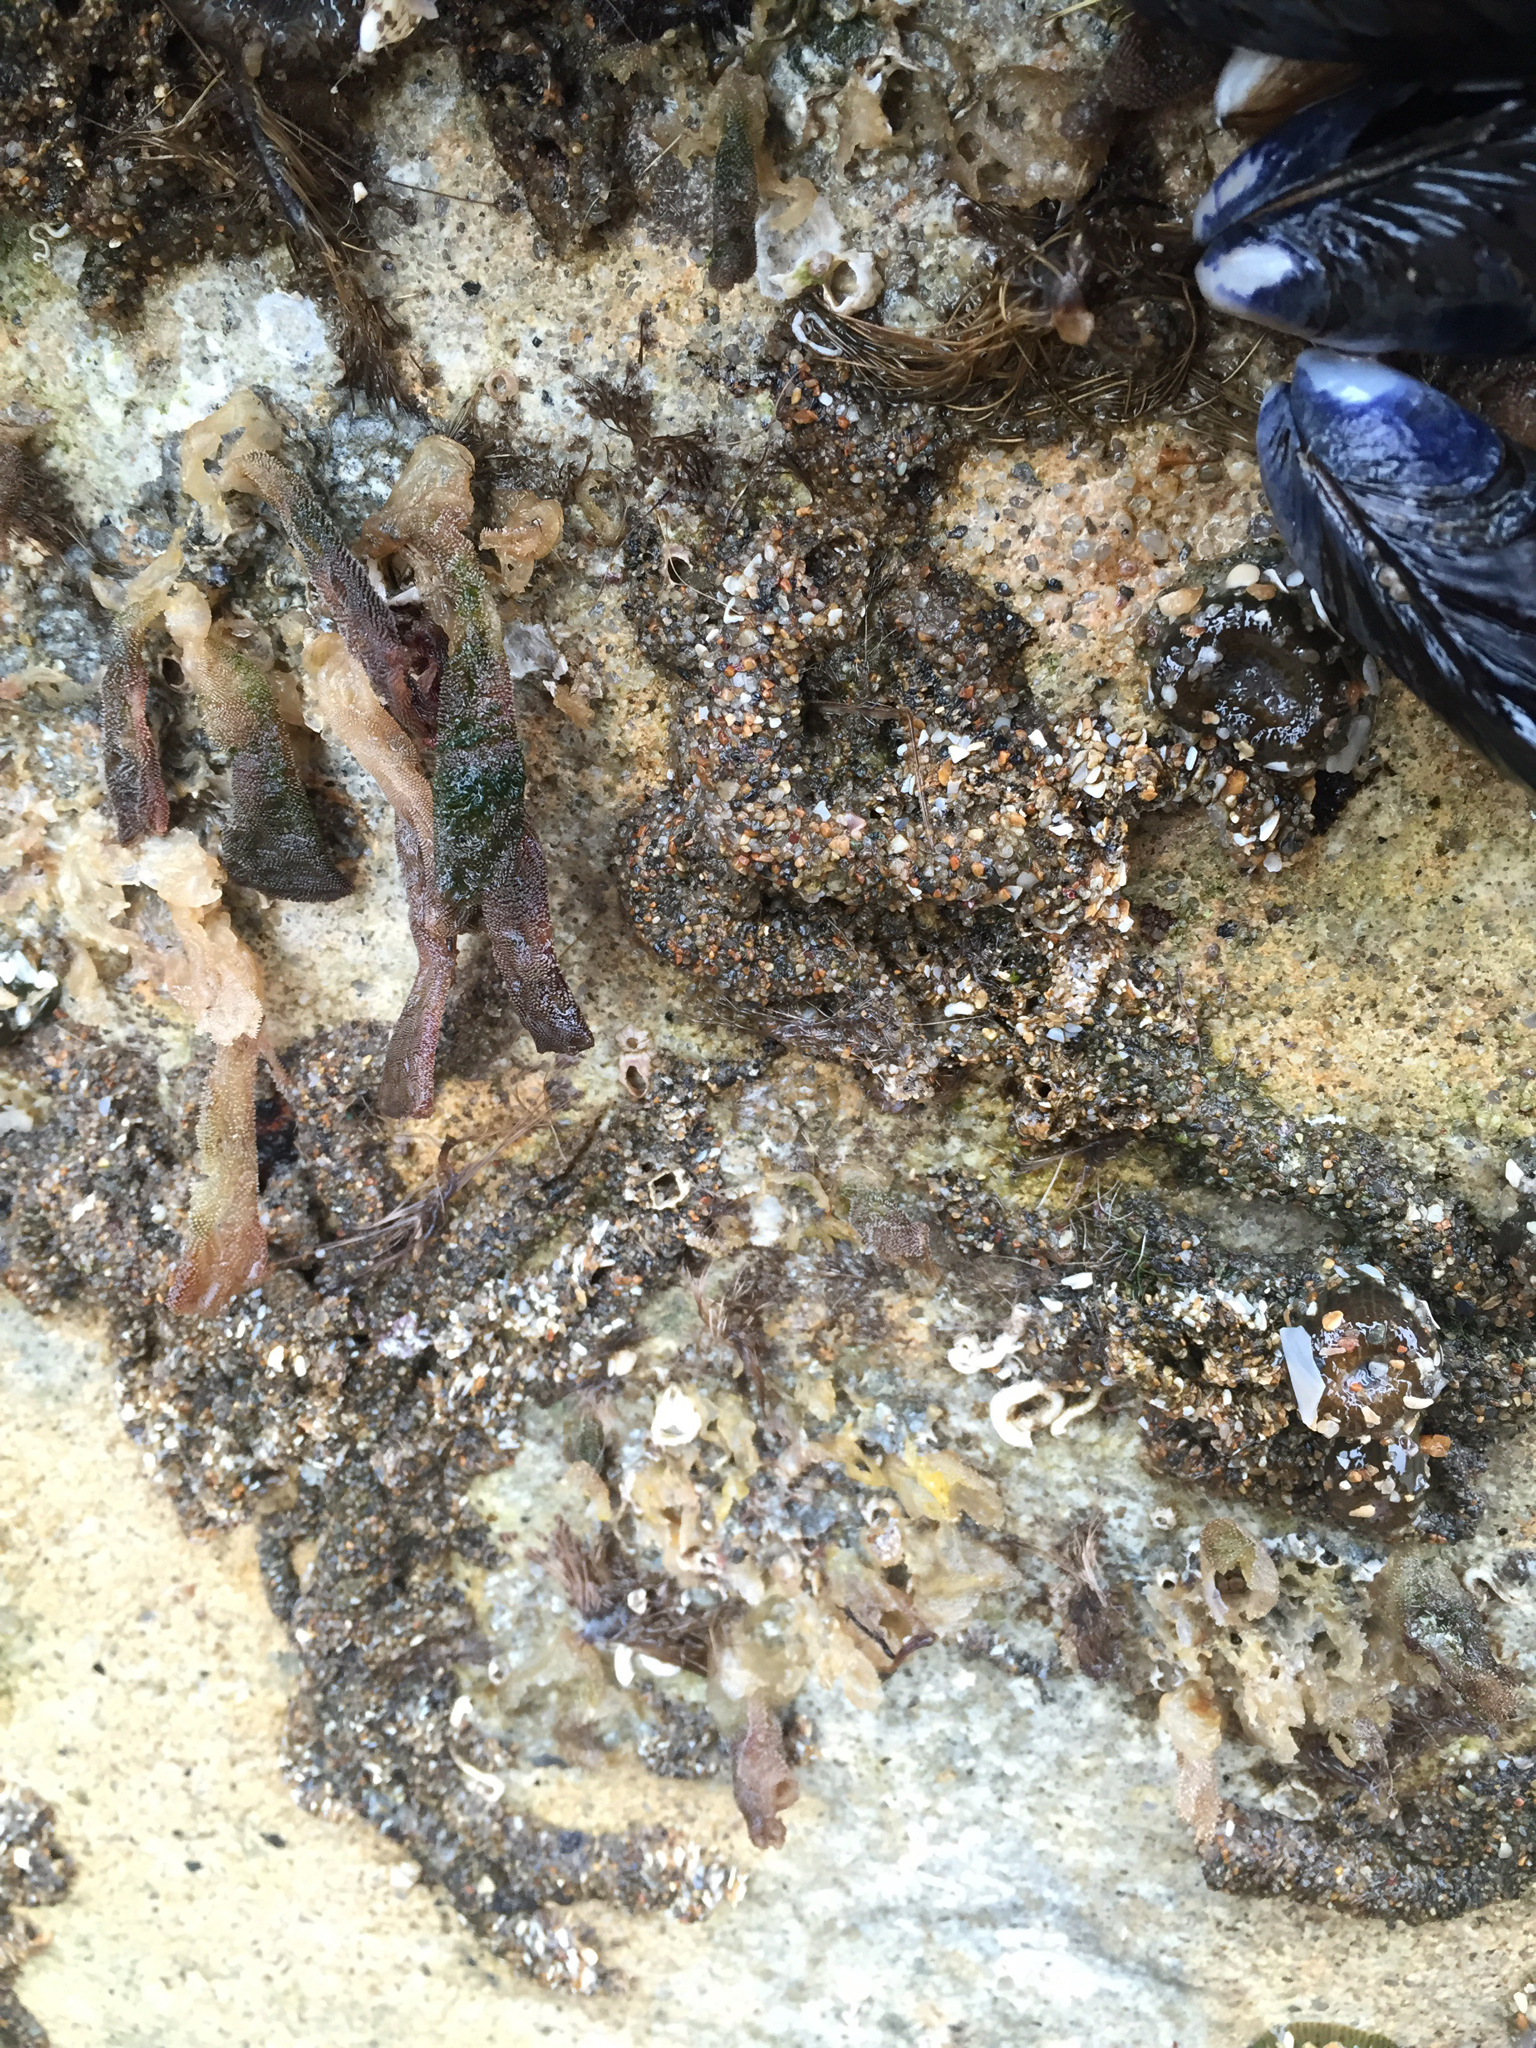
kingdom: Animalia
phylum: Annelida
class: Polychaeta
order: Sabellida
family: Sabellariidae
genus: Phragmatopoma
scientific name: Phragmatopoma californica
